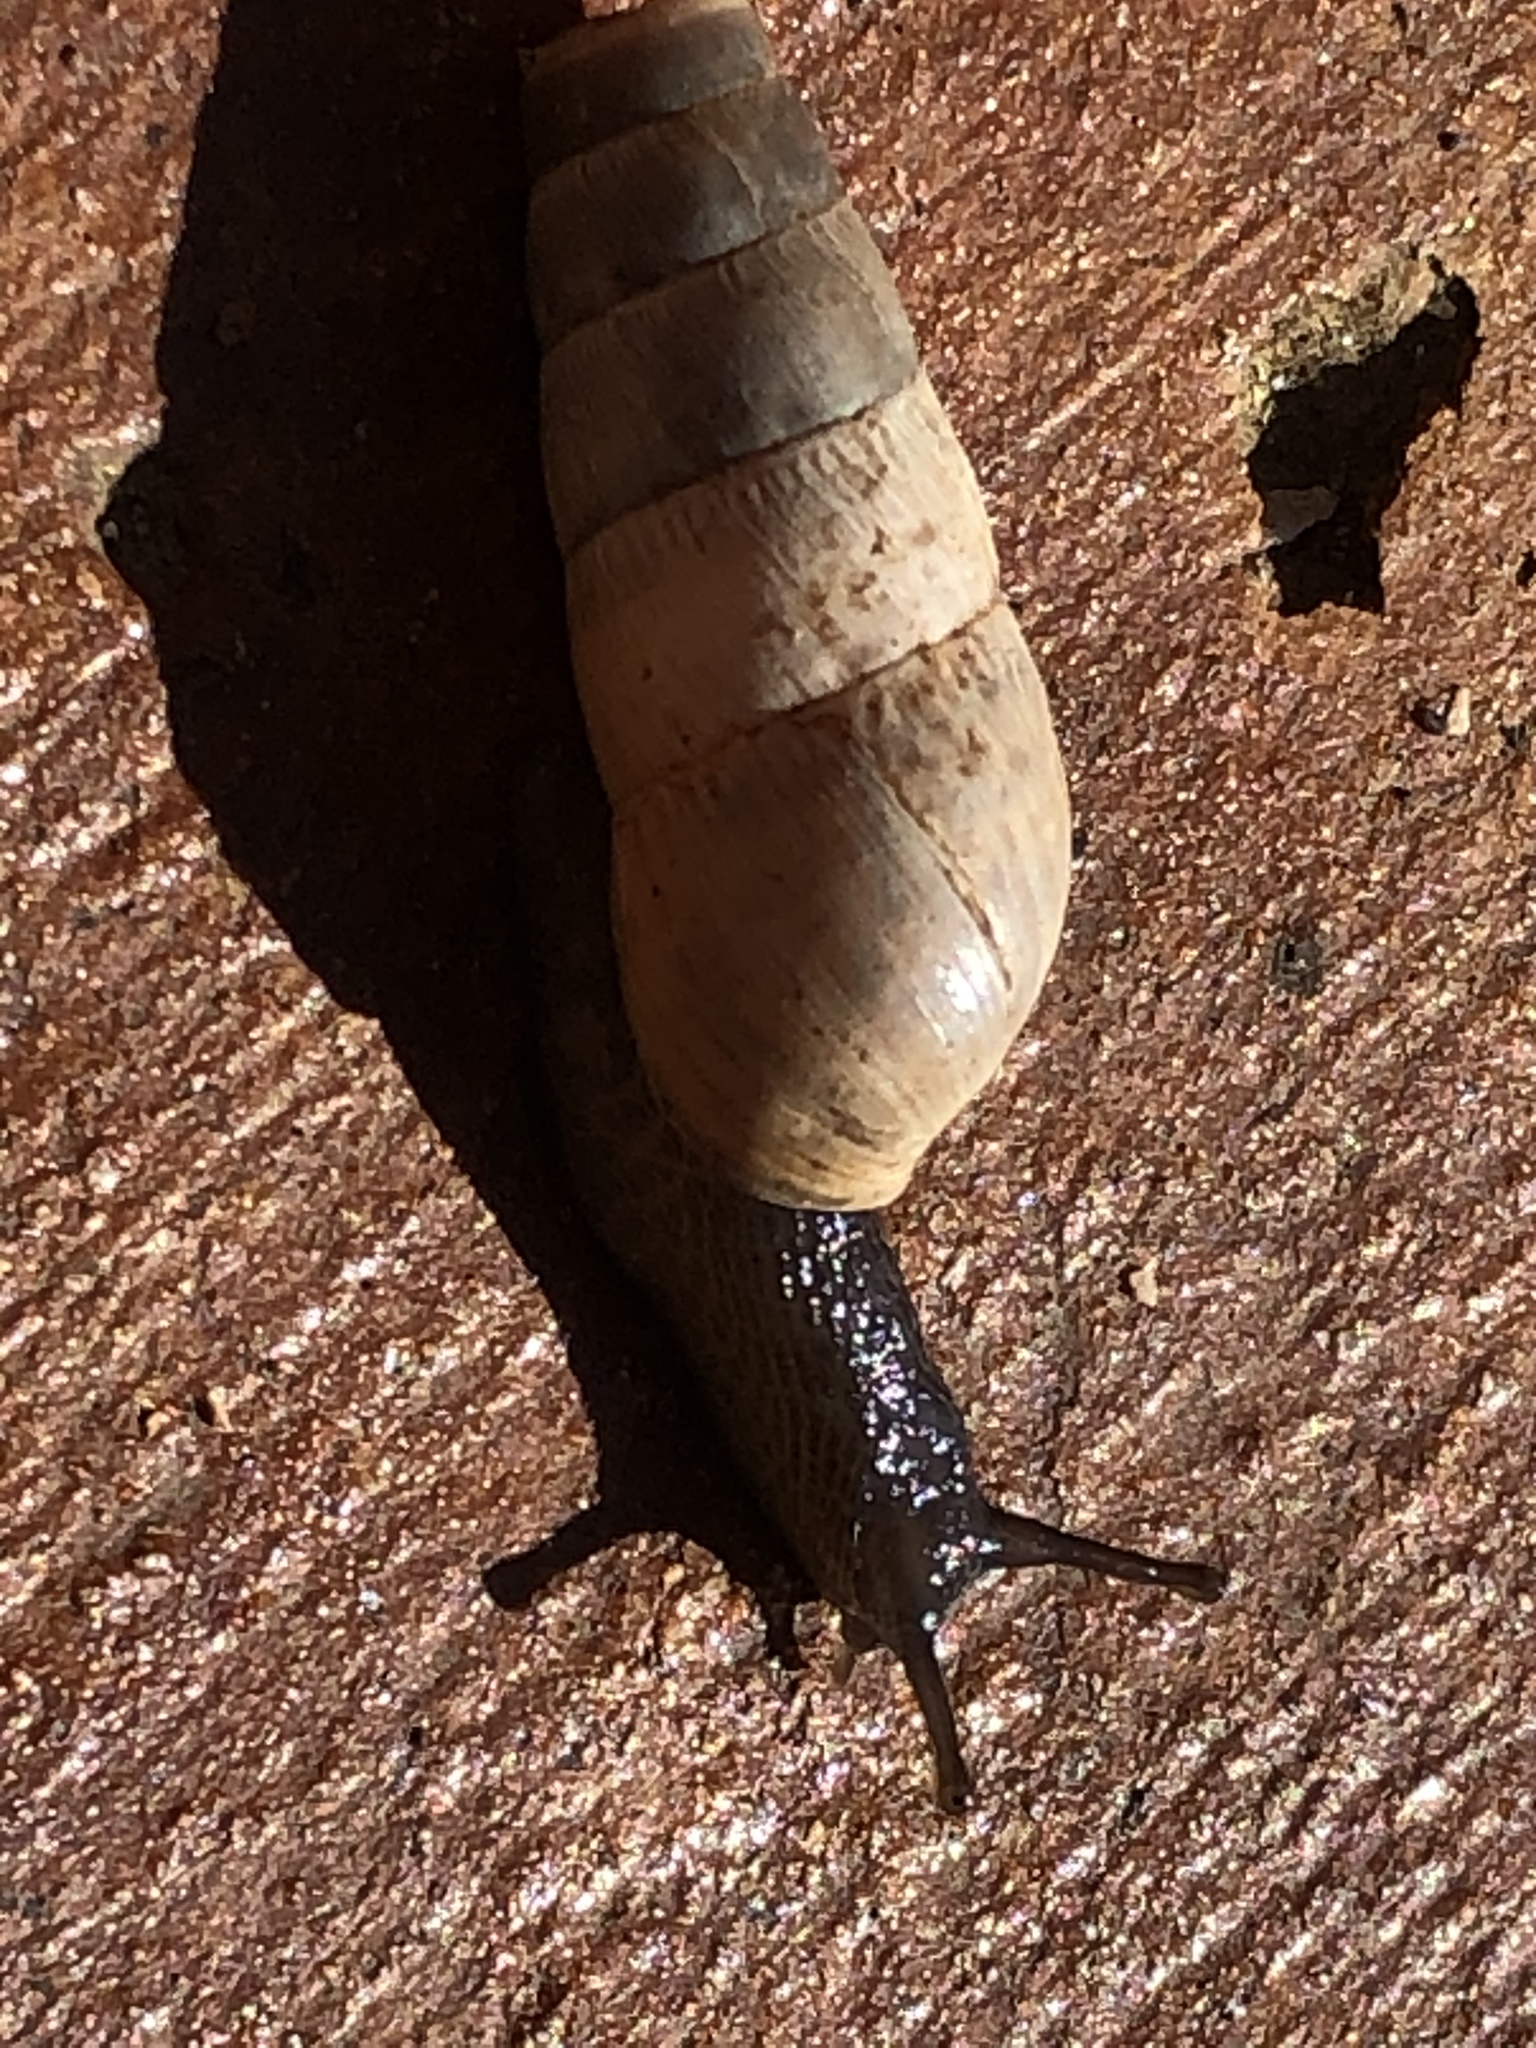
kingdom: Animalia
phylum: Mollusca
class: Gastropoda
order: Stylommatophora
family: Achatinidae
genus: Rumina
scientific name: Rumina decollata
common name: Decollate snail
